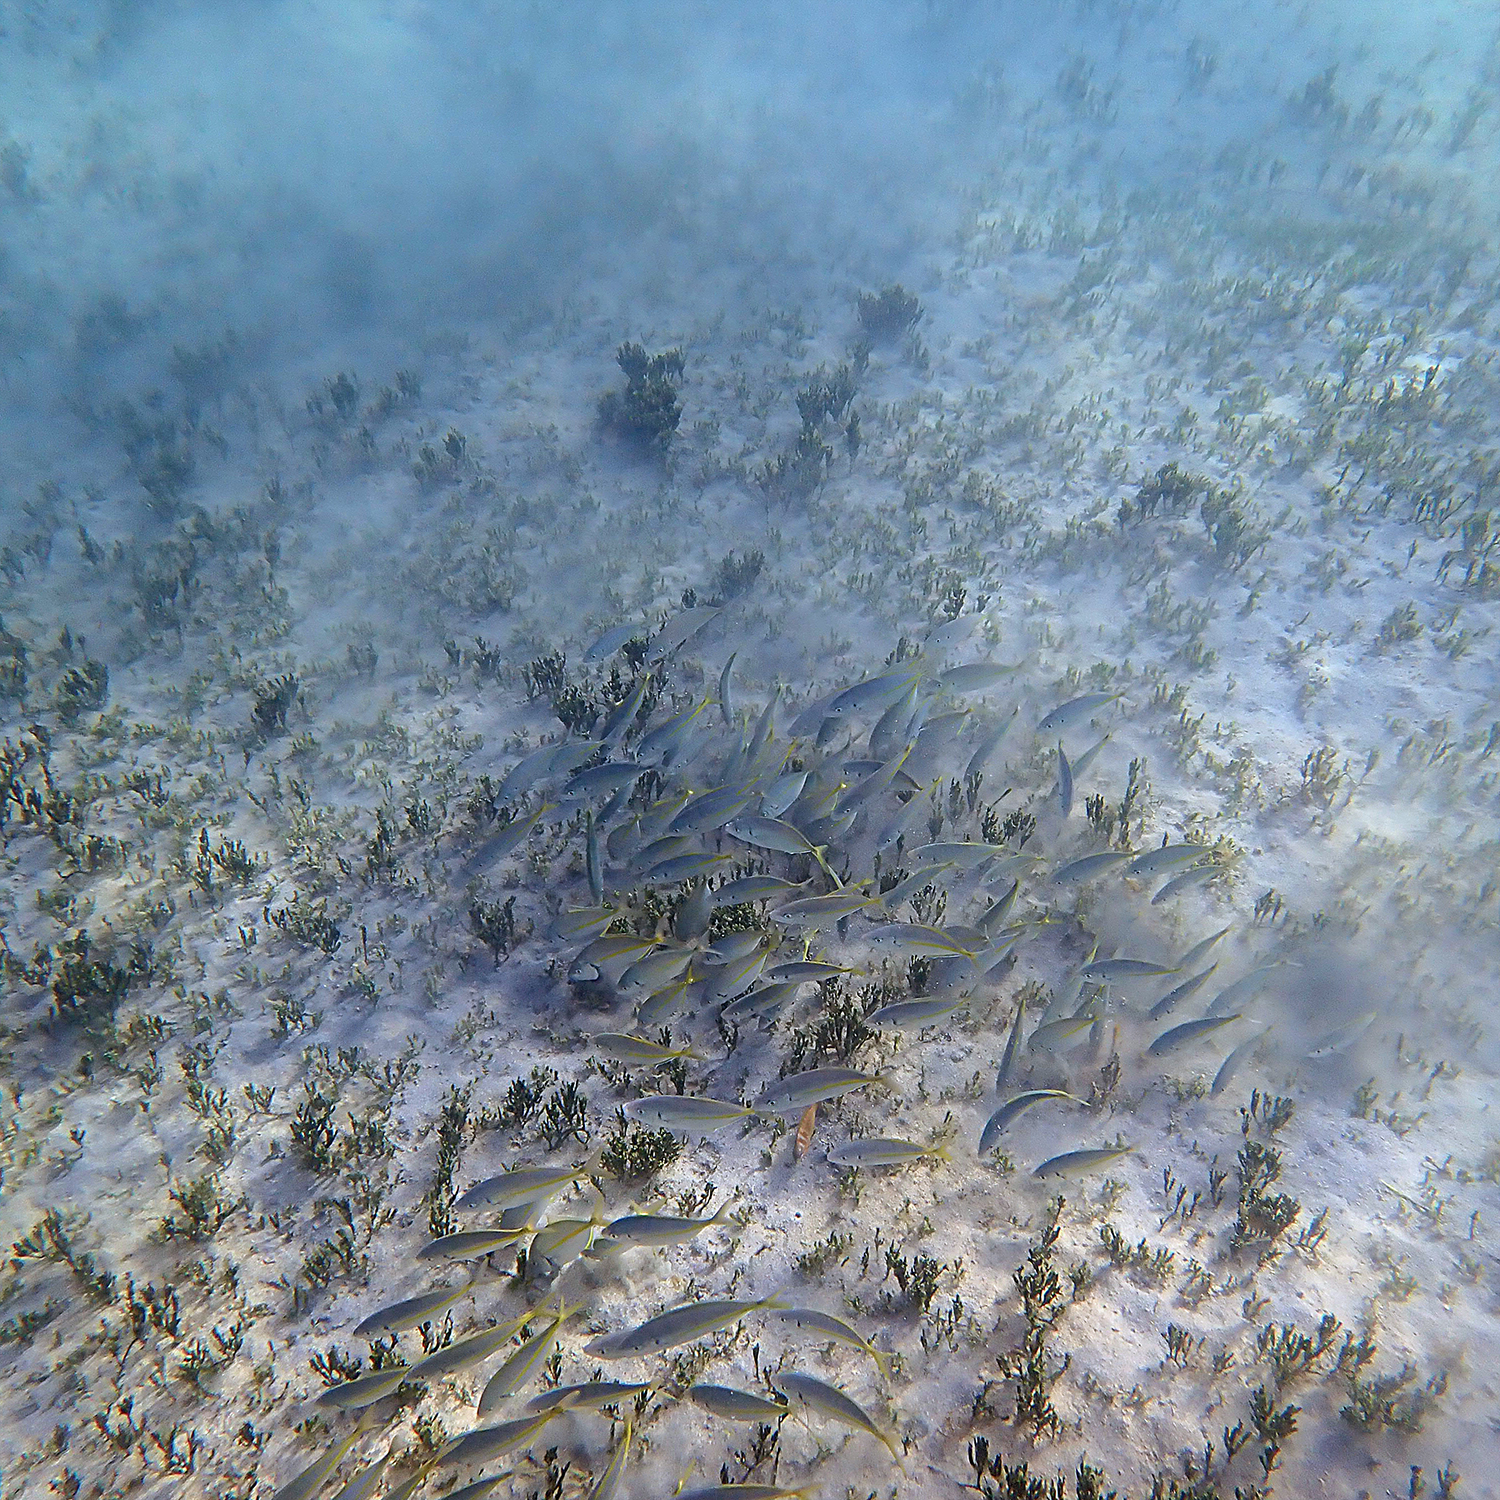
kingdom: Animalia
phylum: Chordata
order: Perciformes
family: Carangidae
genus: Pseudocaranx
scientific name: Pseudocaranx dentex
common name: White trevally
